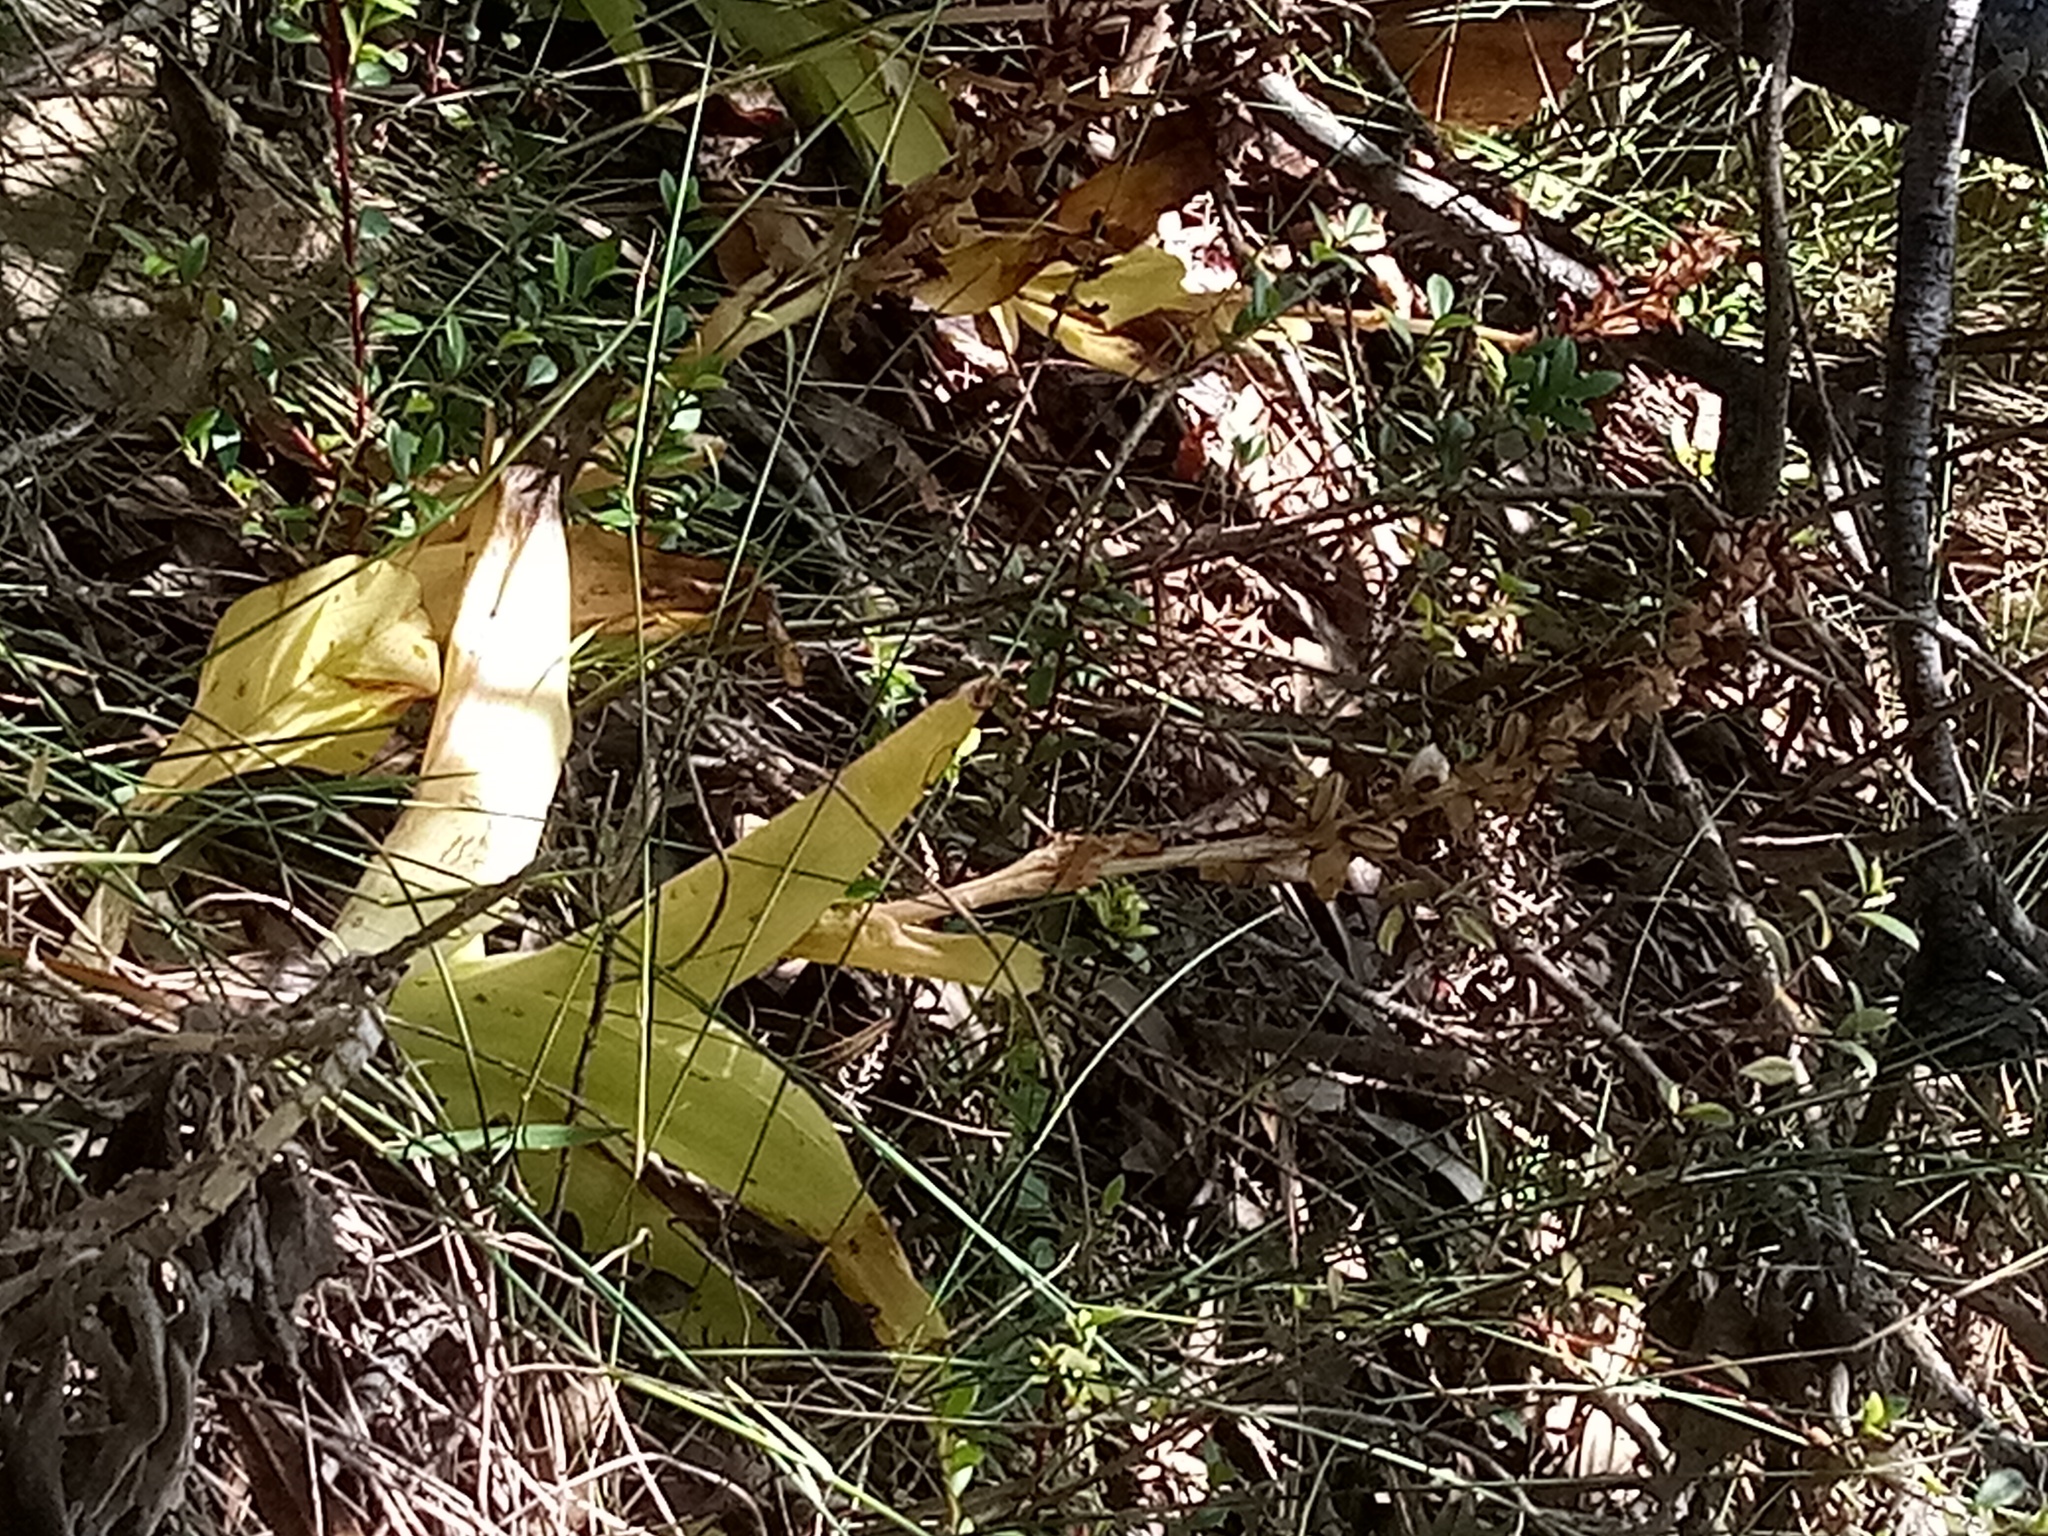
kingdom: Plantae
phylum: Tracheophyta
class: Liliopsida
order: Asparagales
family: Orchidaceae
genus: Satyrium
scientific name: Satyrium odorum
